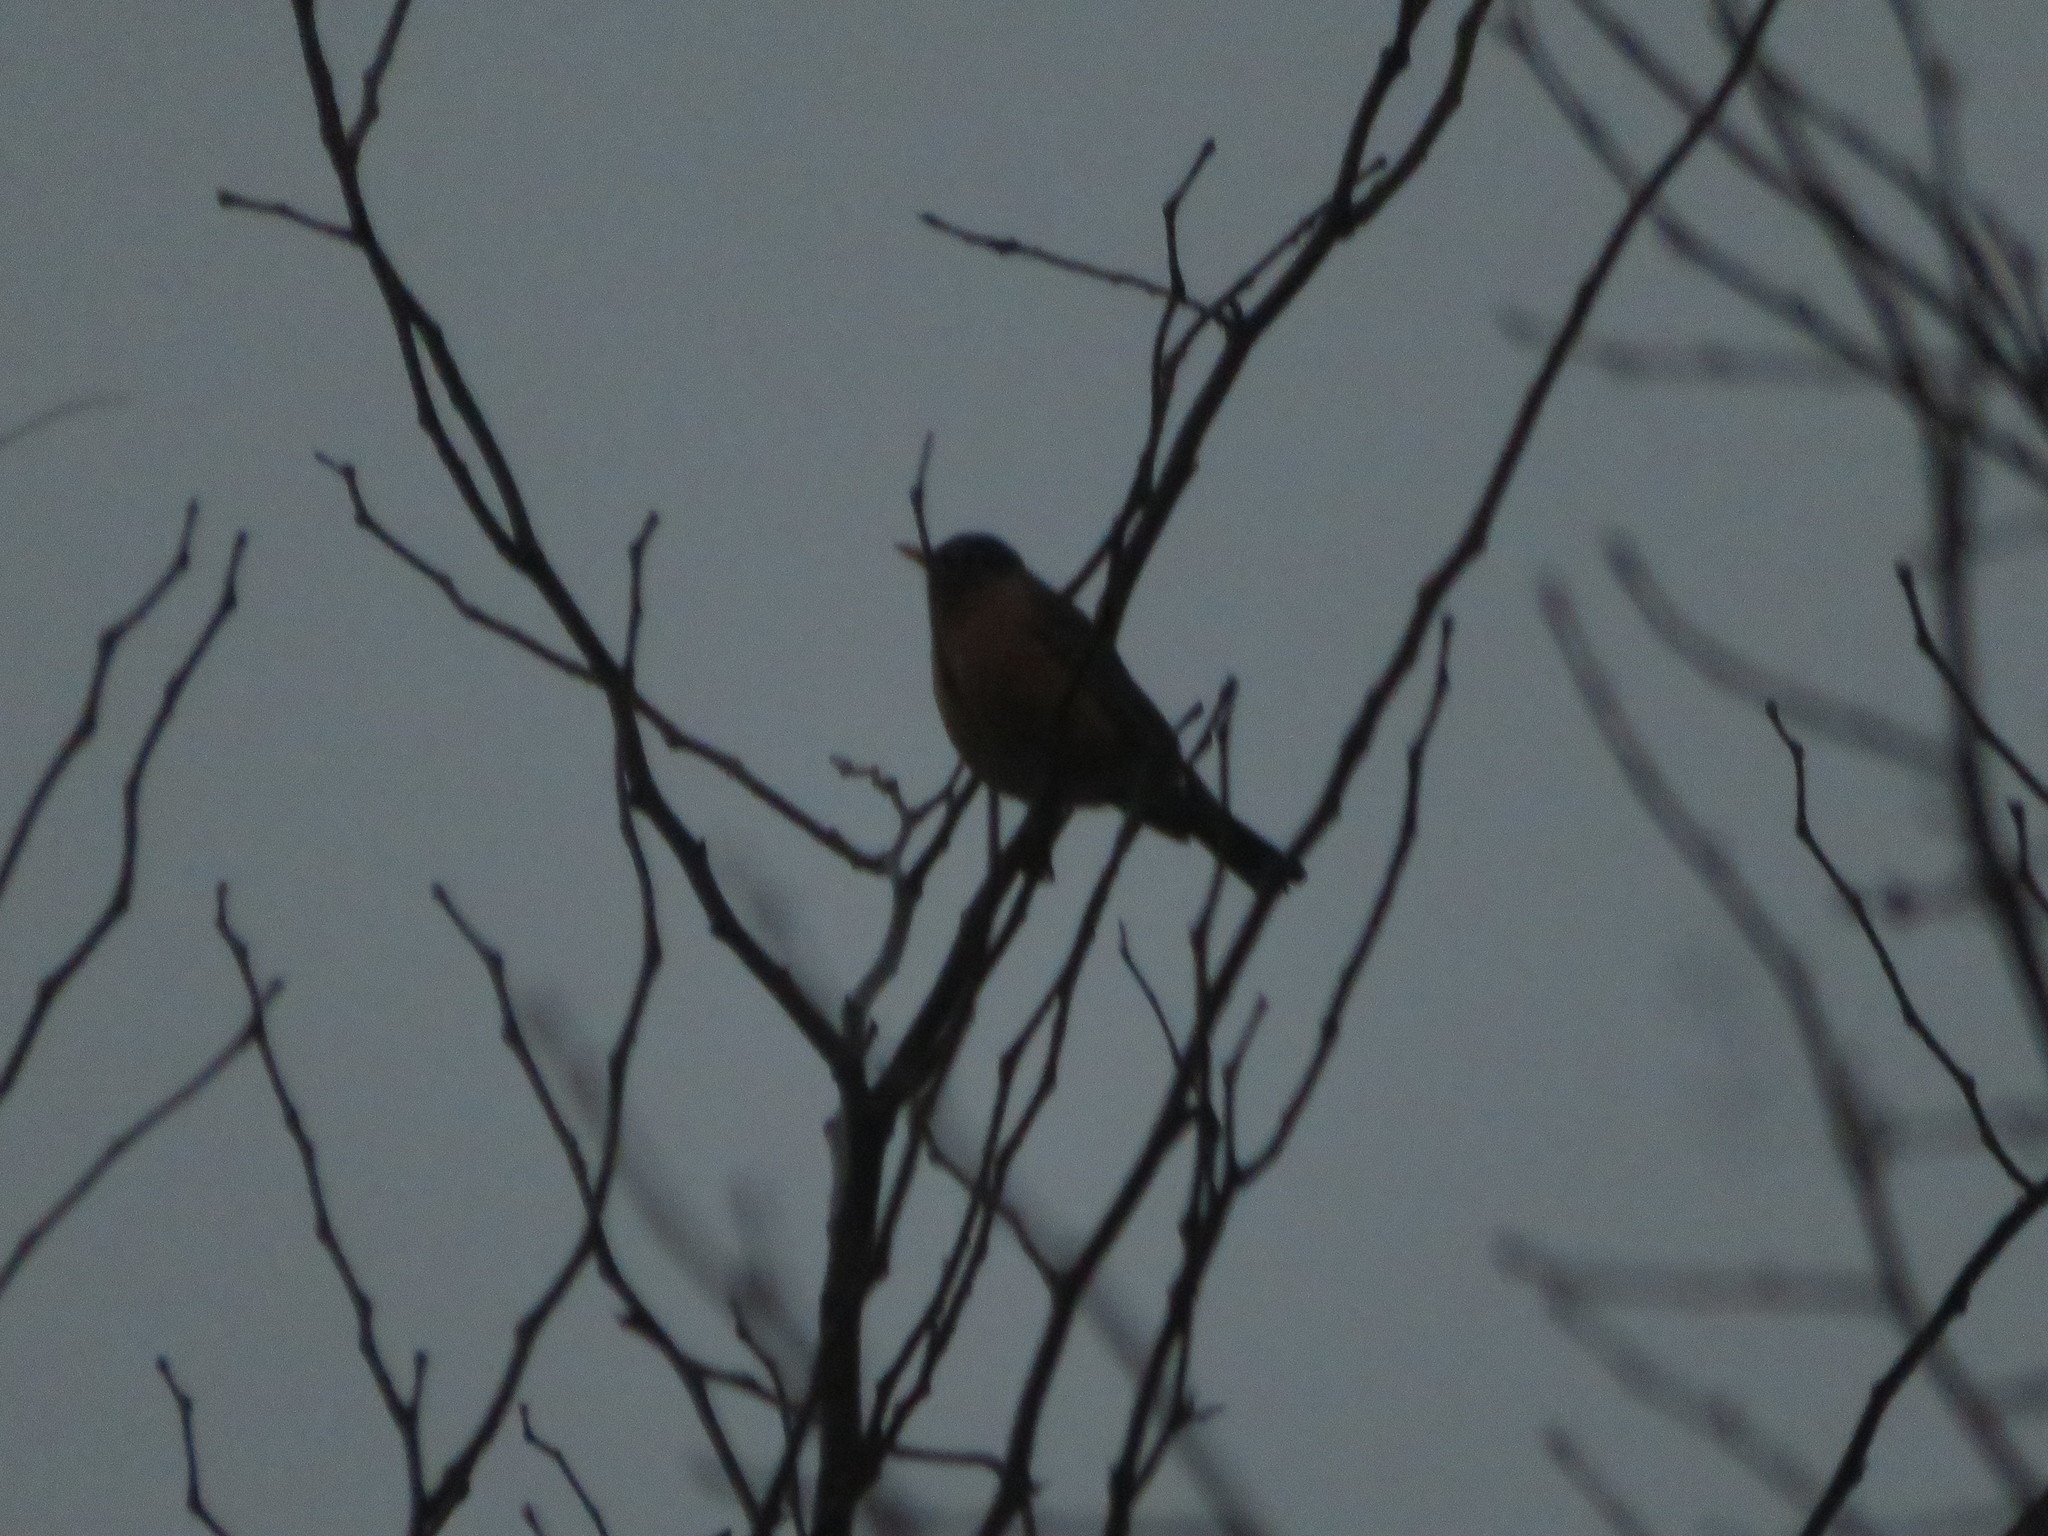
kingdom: Animalia
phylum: Chordata
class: Aves
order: Passeriformes
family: Turdidae
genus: Turdus
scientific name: Turdus migratorius
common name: American robin
